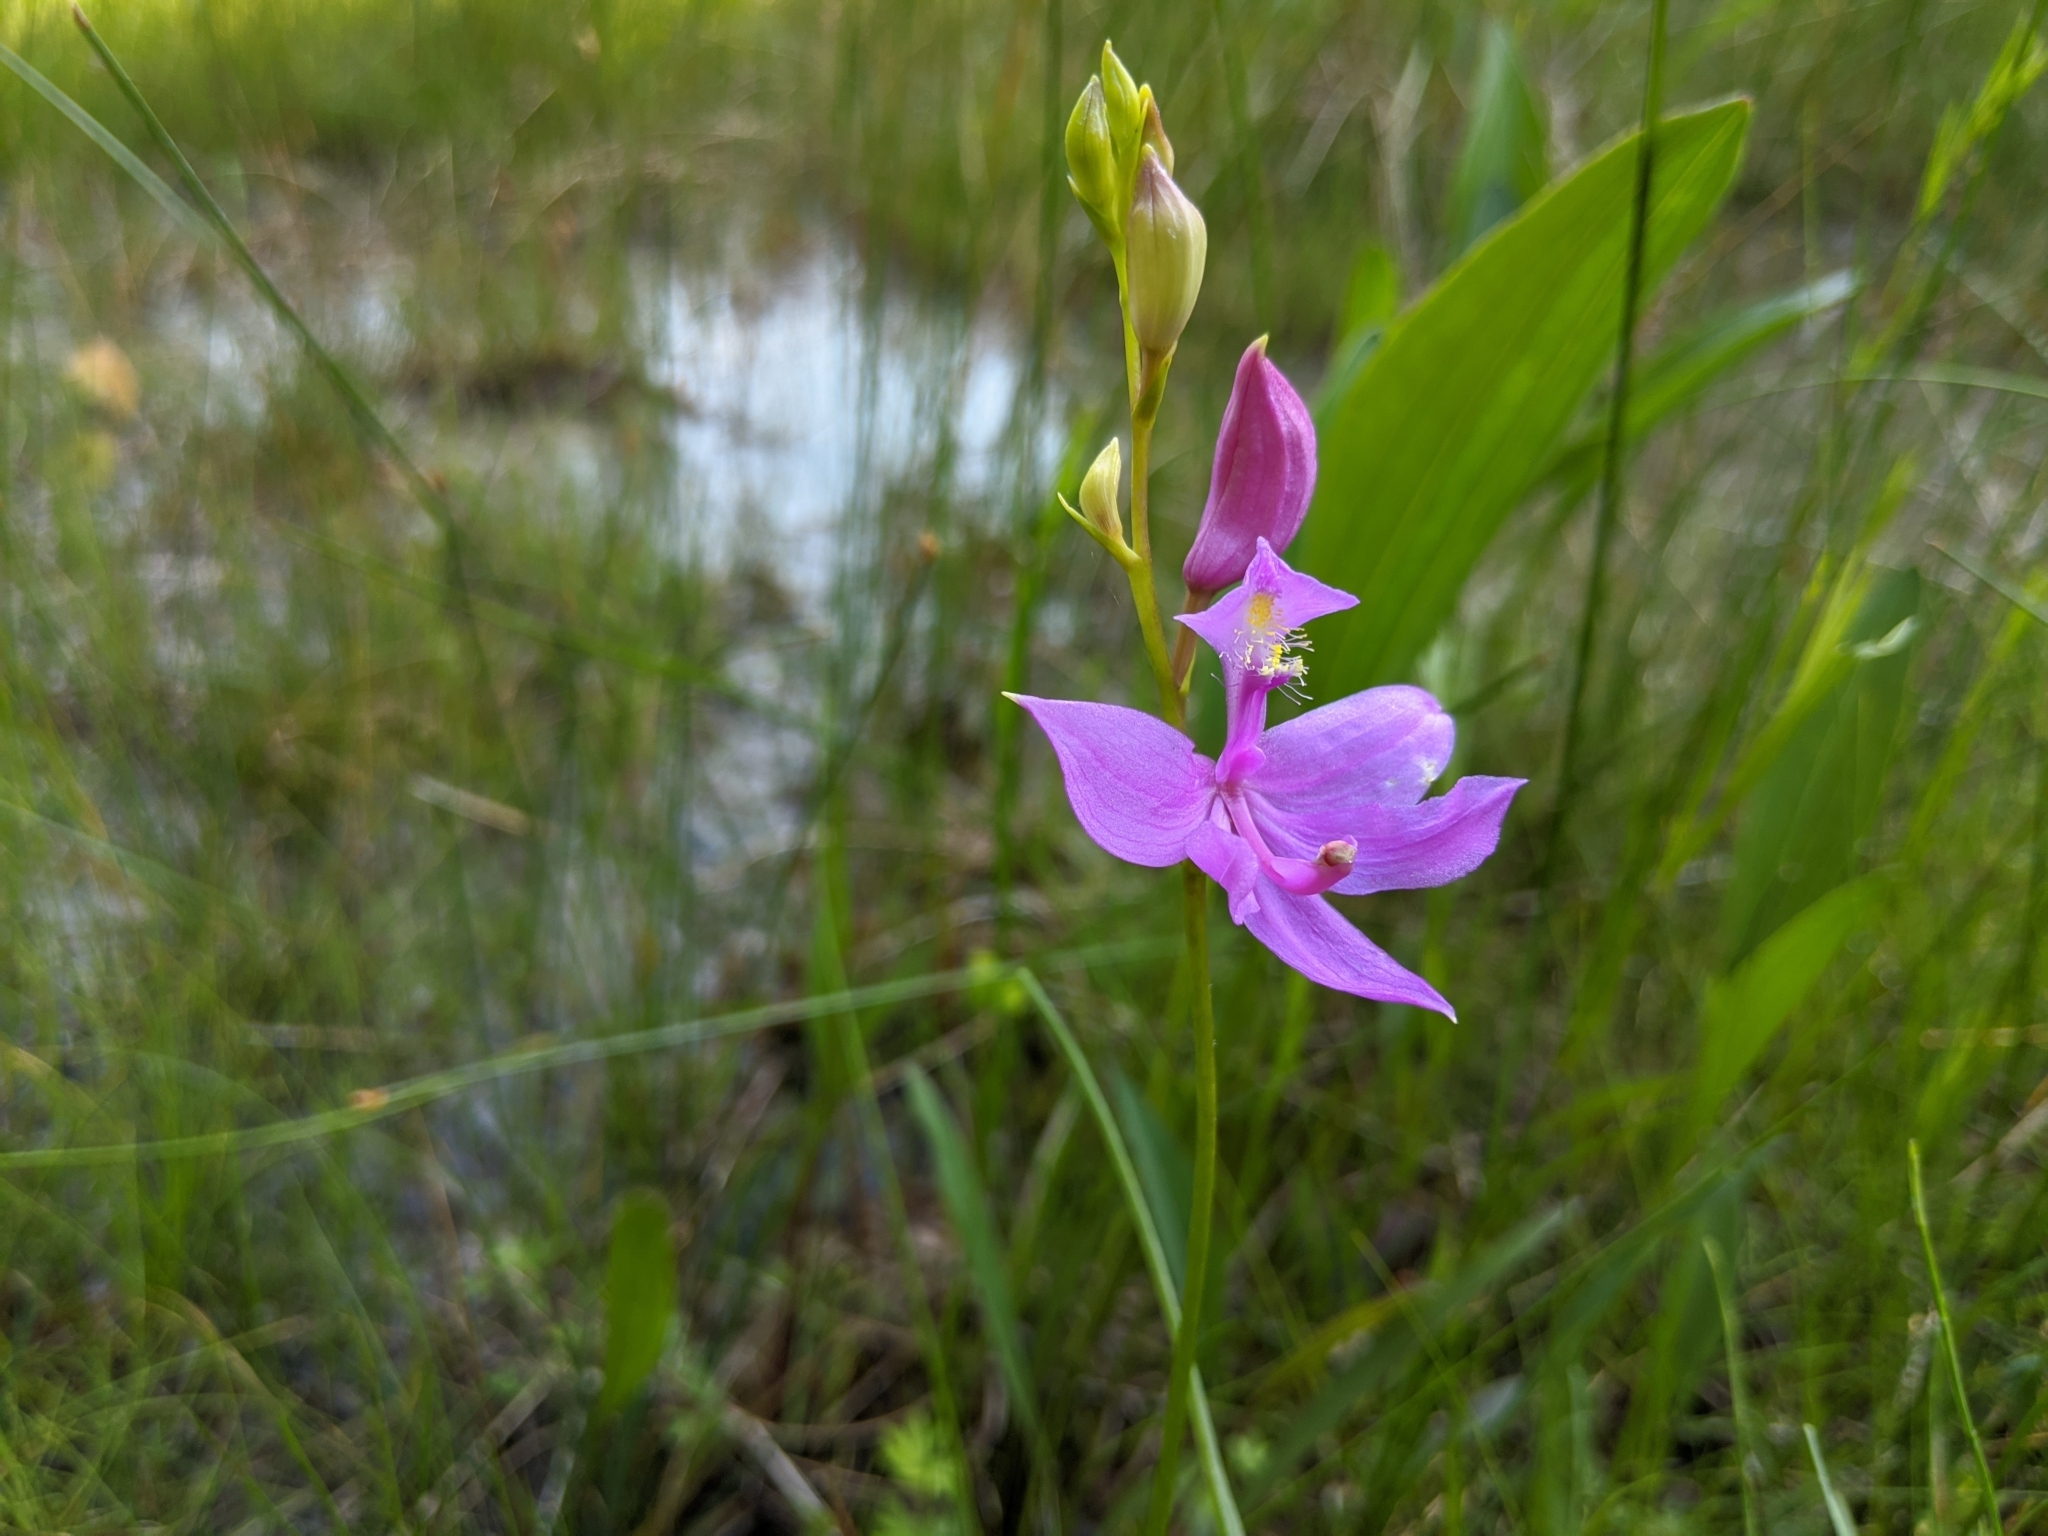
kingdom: Plantae
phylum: Tracheophyta
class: Liliopsida
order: Asparagales
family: Orchidaceae
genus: Calopogon
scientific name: Calopogon tuberosus
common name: Grass-pink
